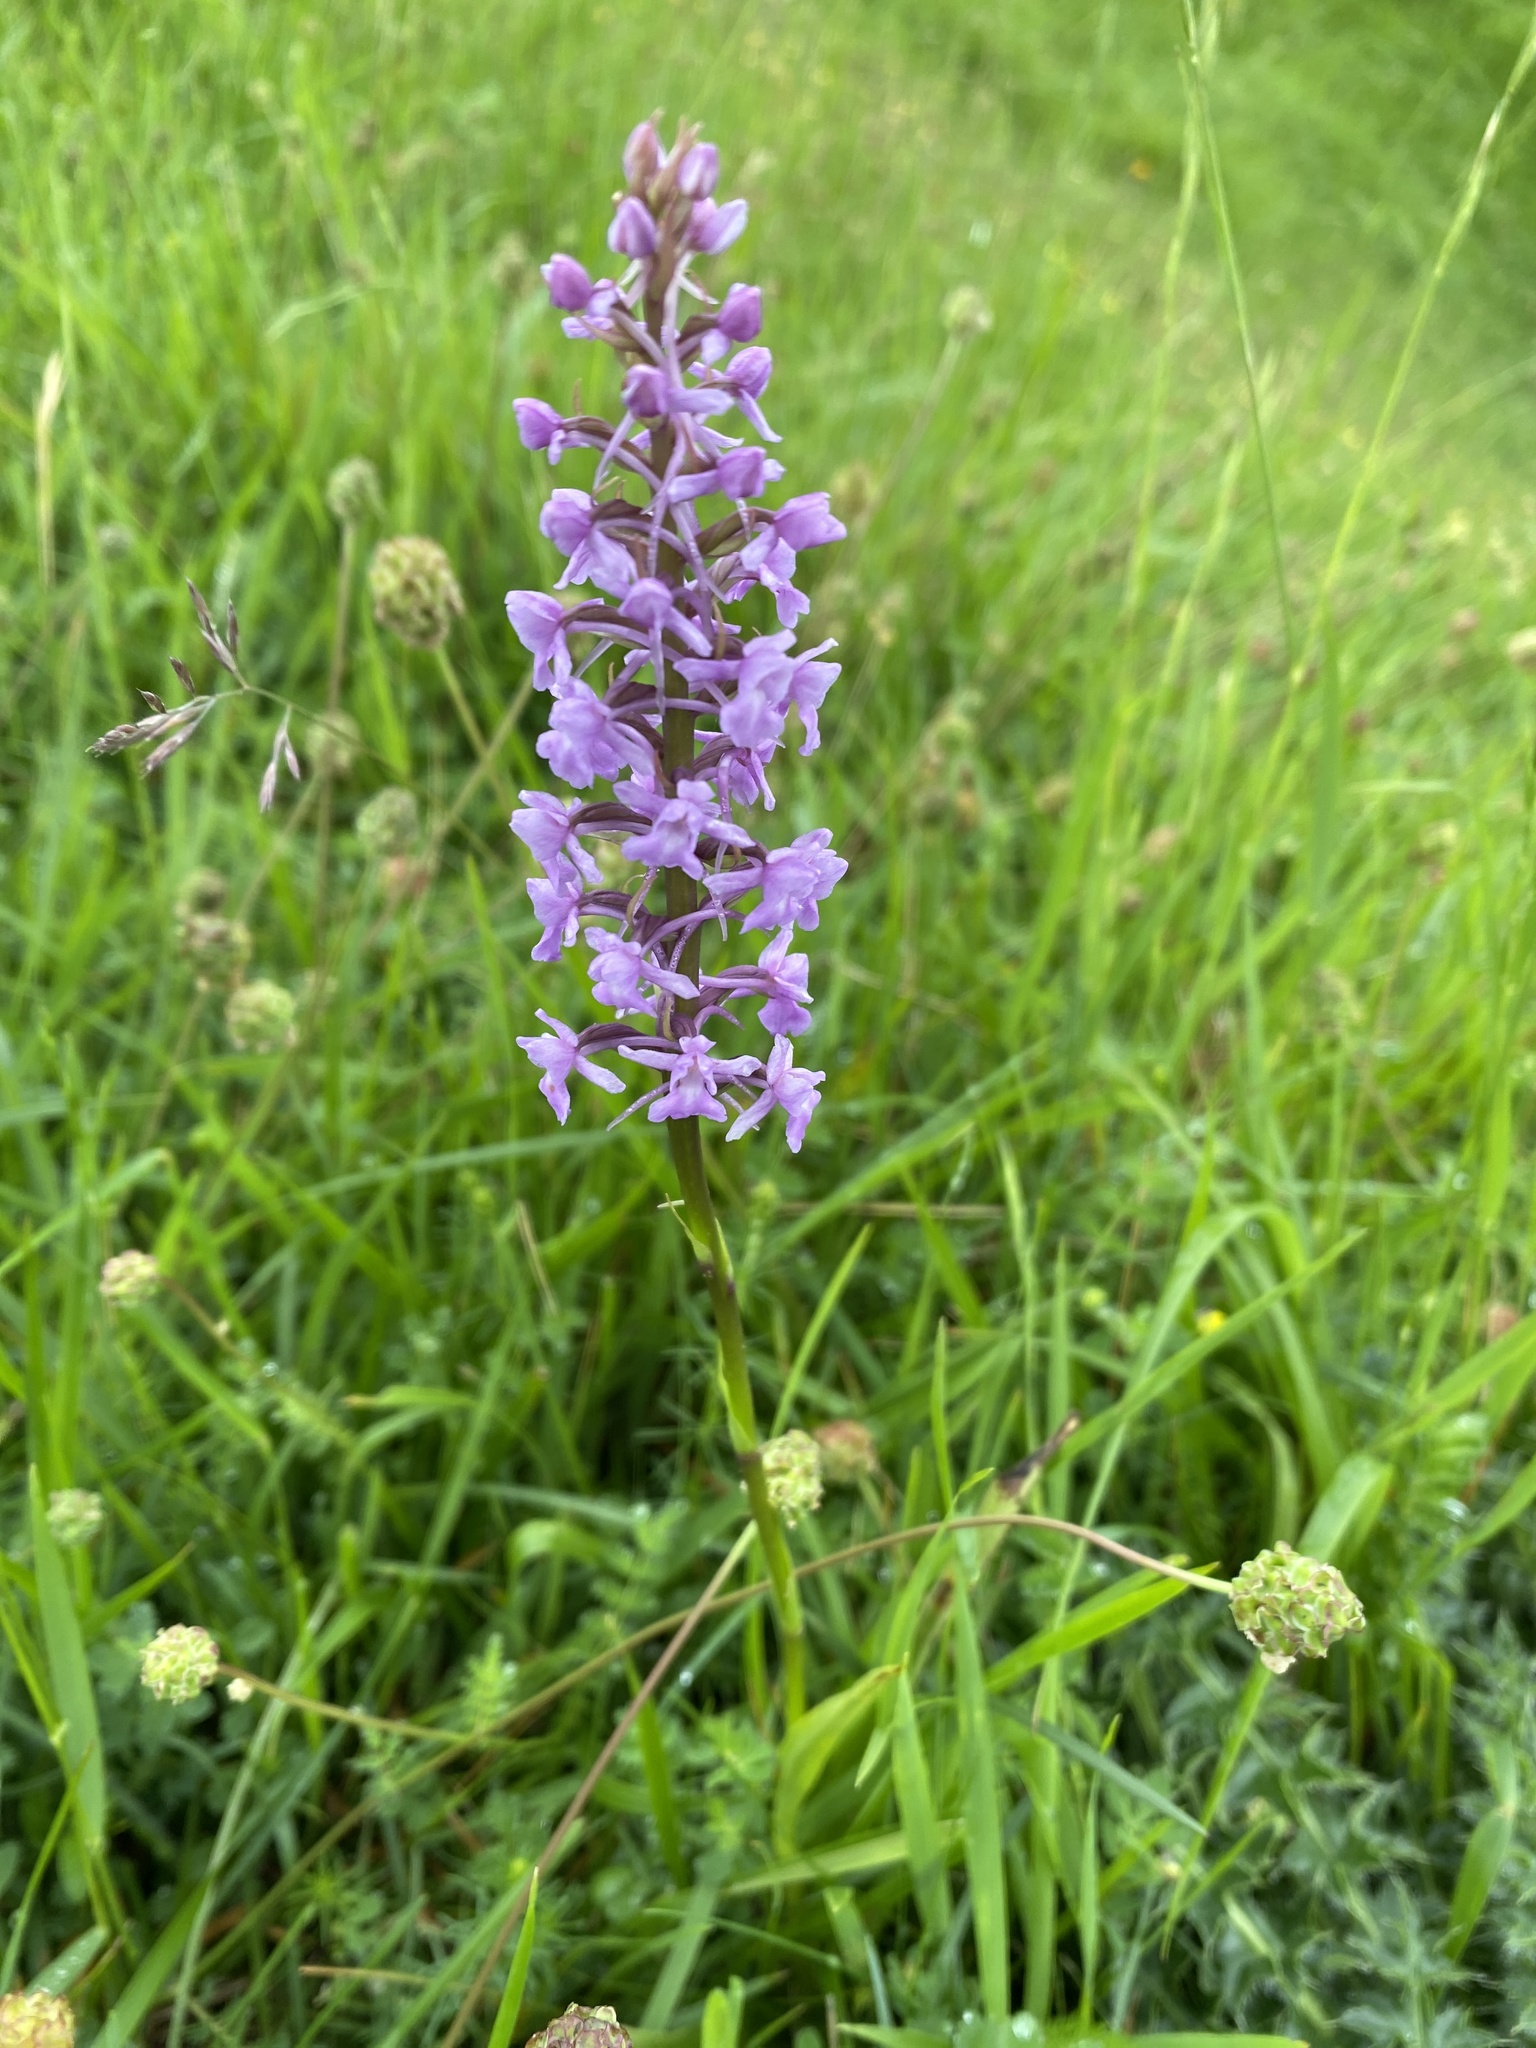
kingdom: Plantae
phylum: Tracheophyta
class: Liliopsida
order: Asparagales
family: Orchidaceae
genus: Gymnadenia
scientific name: Gymnadenia conopsea
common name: Fragrant orchid
